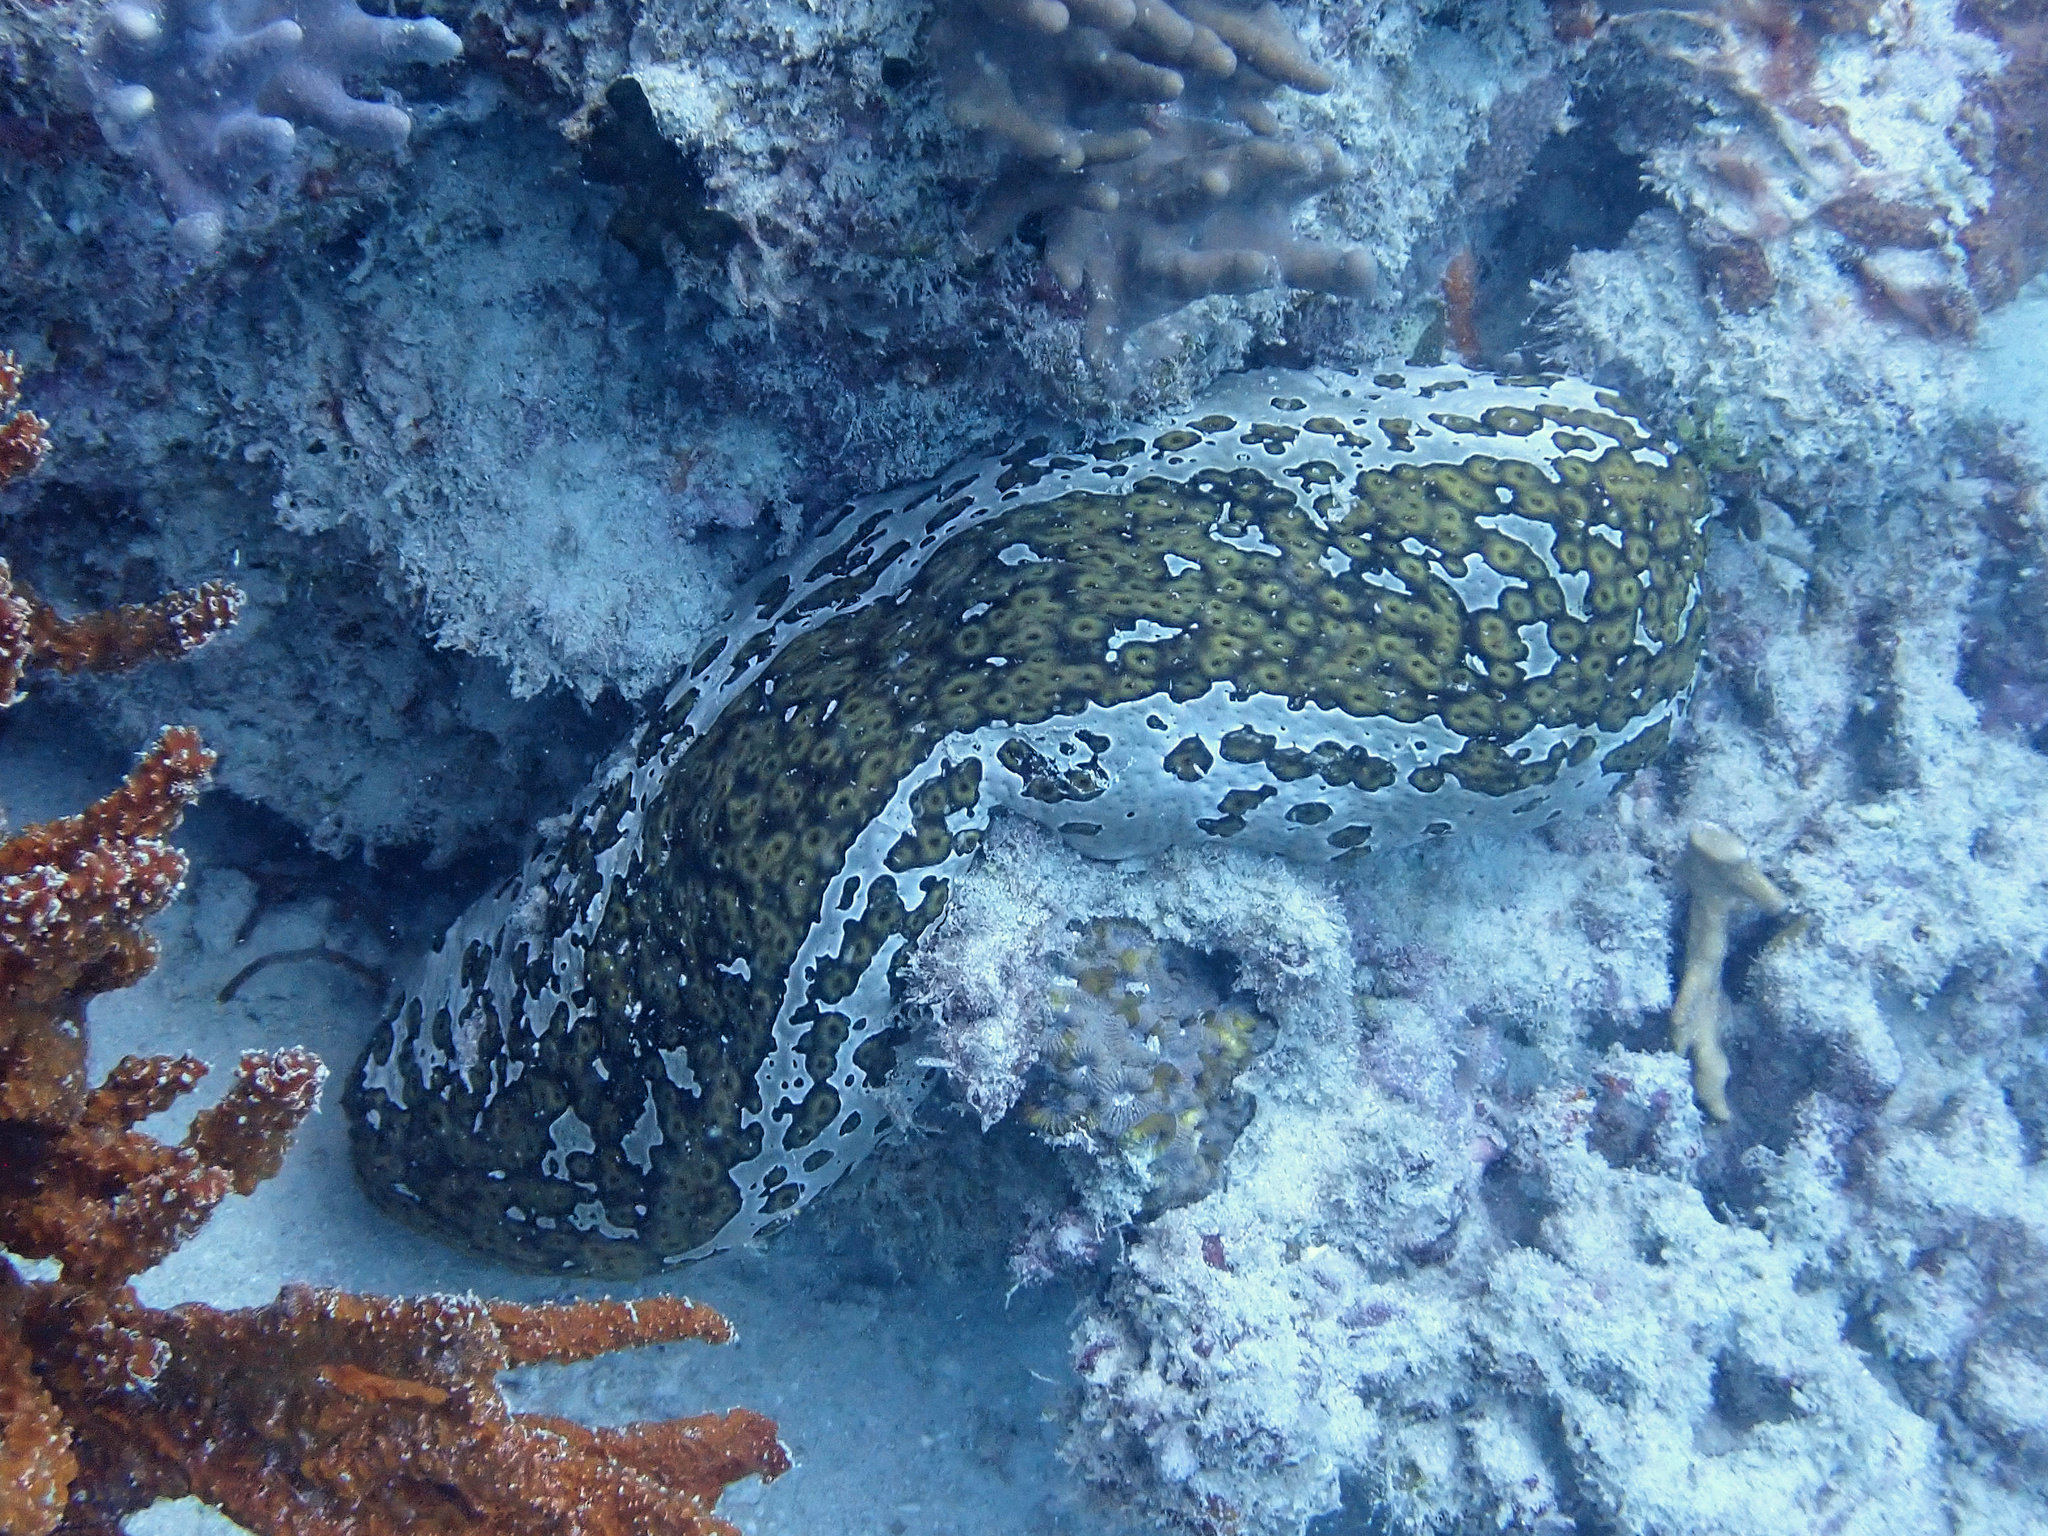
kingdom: Animalia
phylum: Echinodermata
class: Holothuroidea
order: Holothuriida
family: Holothuriidae
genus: Bohadschia
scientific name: Bohadschia argus
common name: Leopardfish
